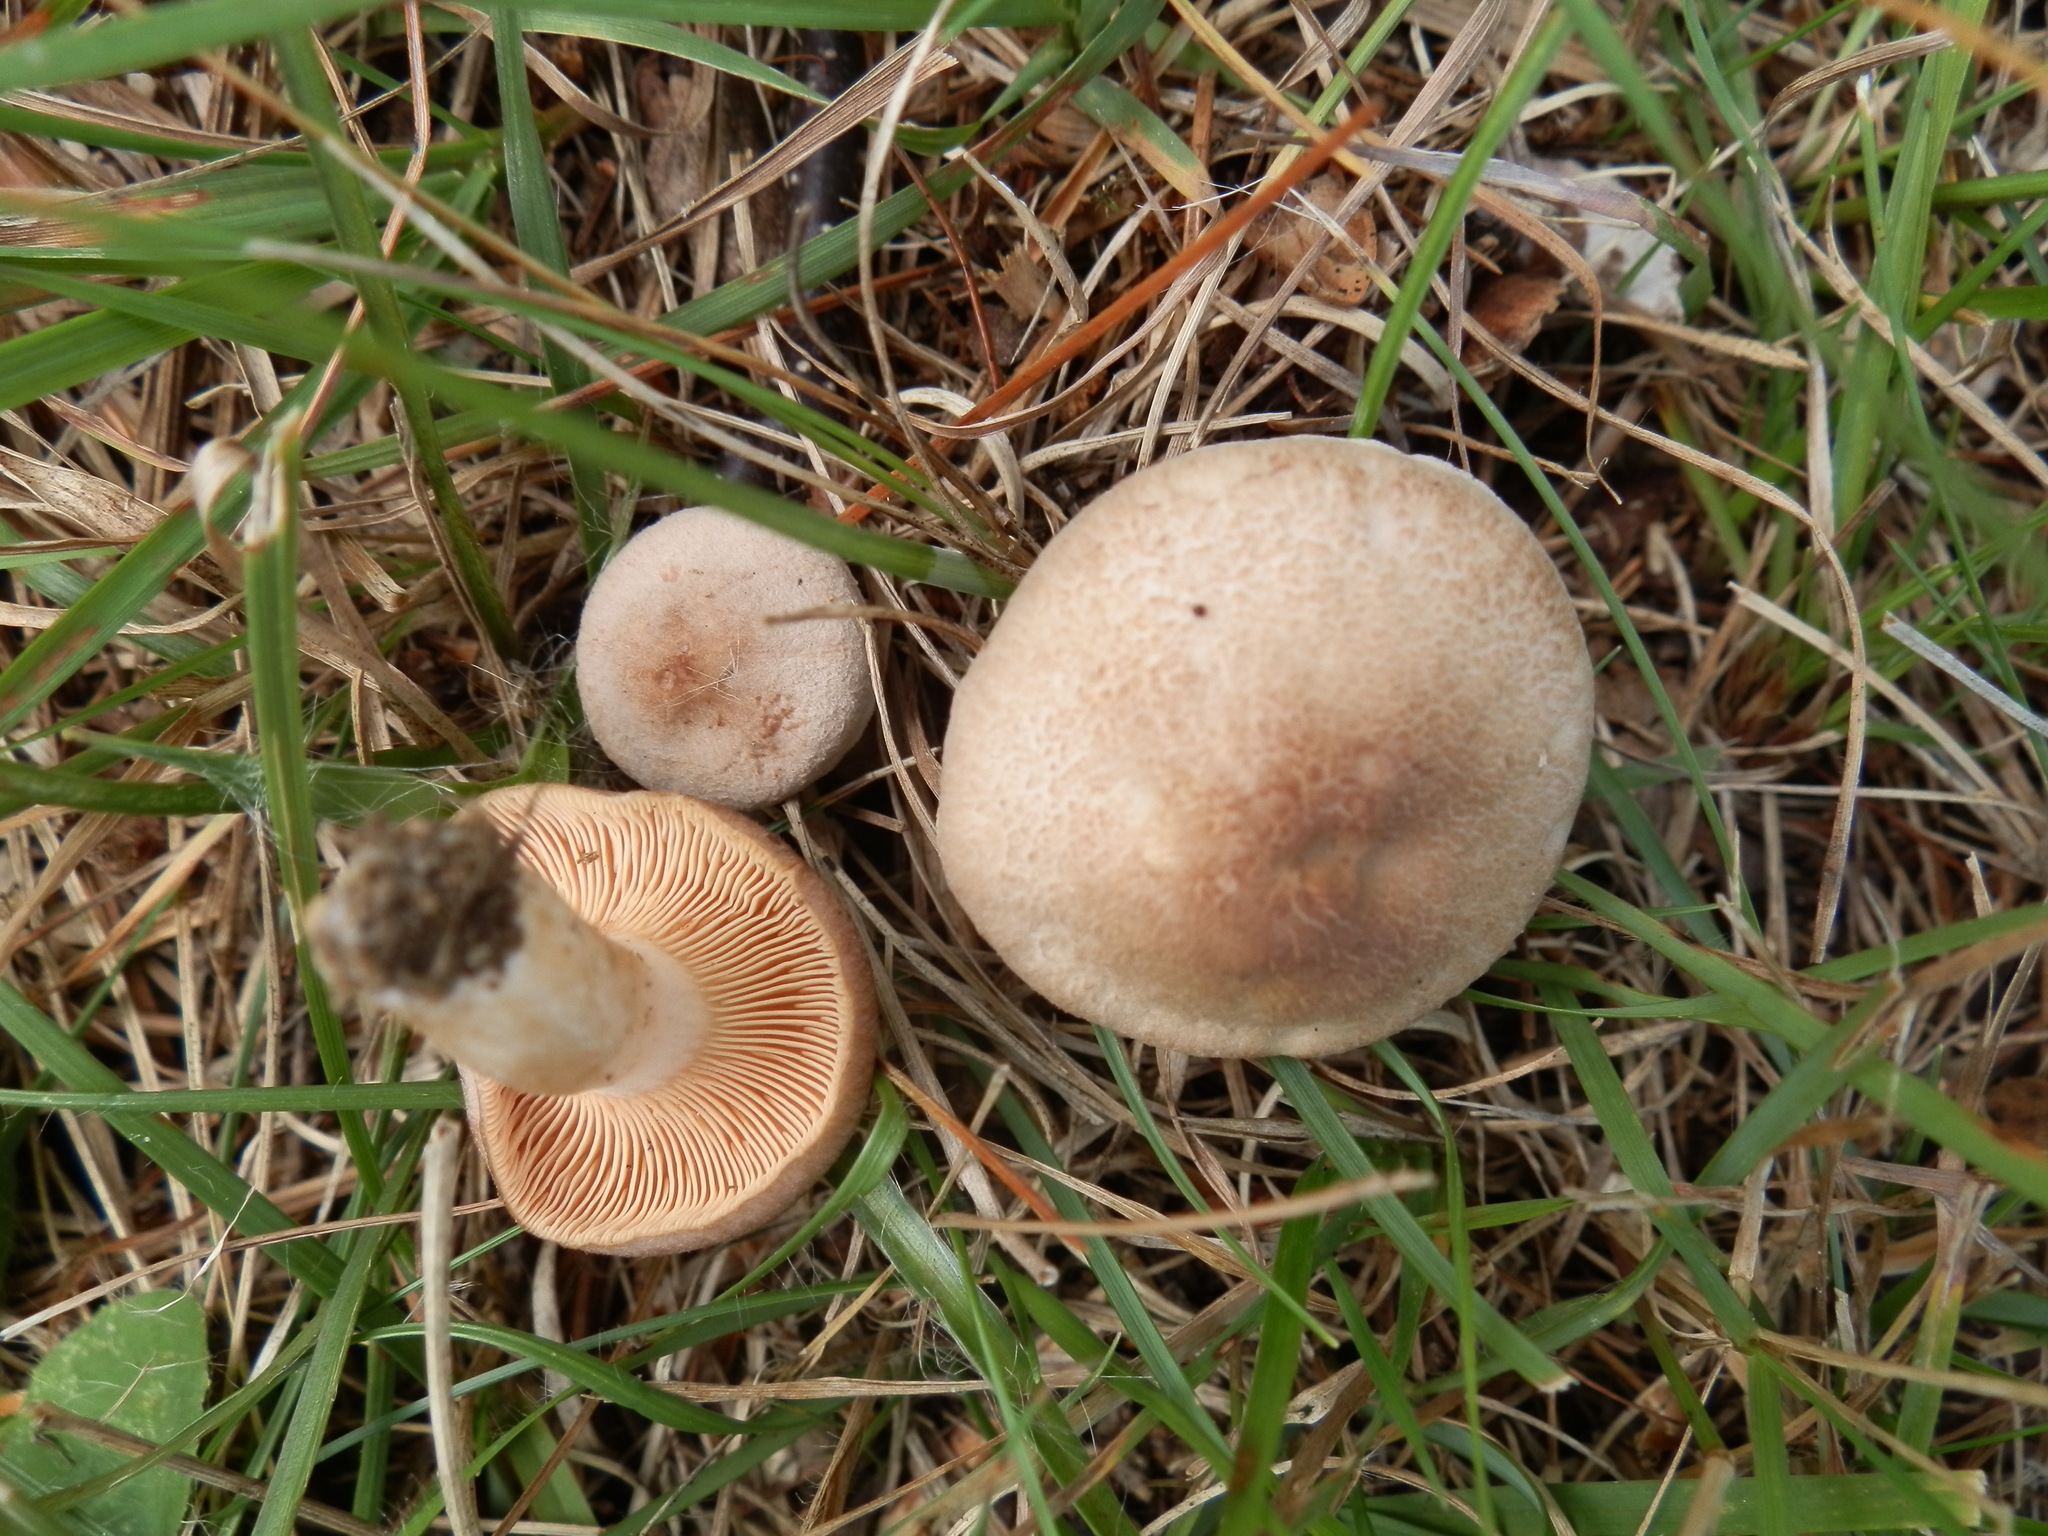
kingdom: Fungi
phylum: Basidiomycota
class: Agaricomycetes
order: Russulales
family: Russulaceae
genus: Lactarius
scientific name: Lactarius glyciosmus
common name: Coconut milkcap
